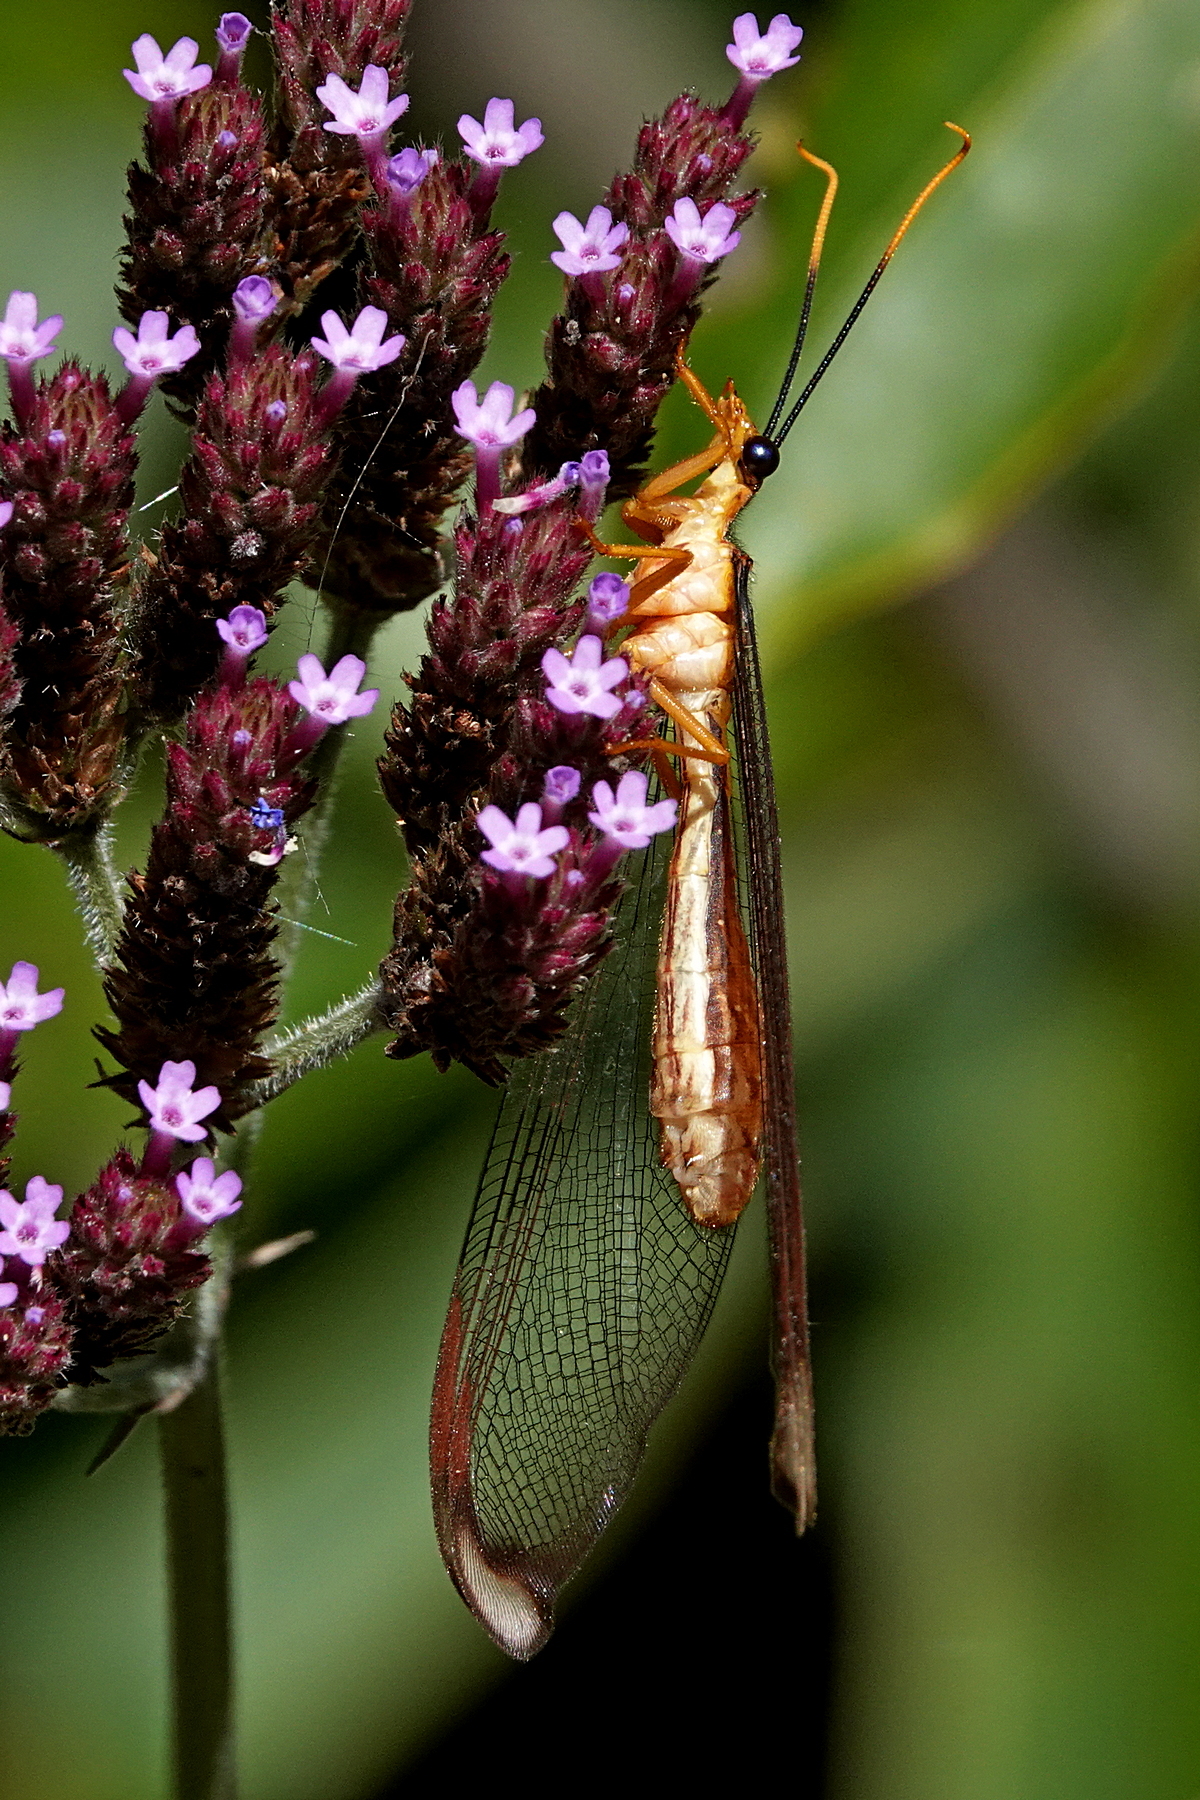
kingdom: Animalia
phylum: Arthropoda
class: Insecta
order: Neuroptera
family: Nymphidae
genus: Nymphes
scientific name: Nymphes myrmeleonoides
